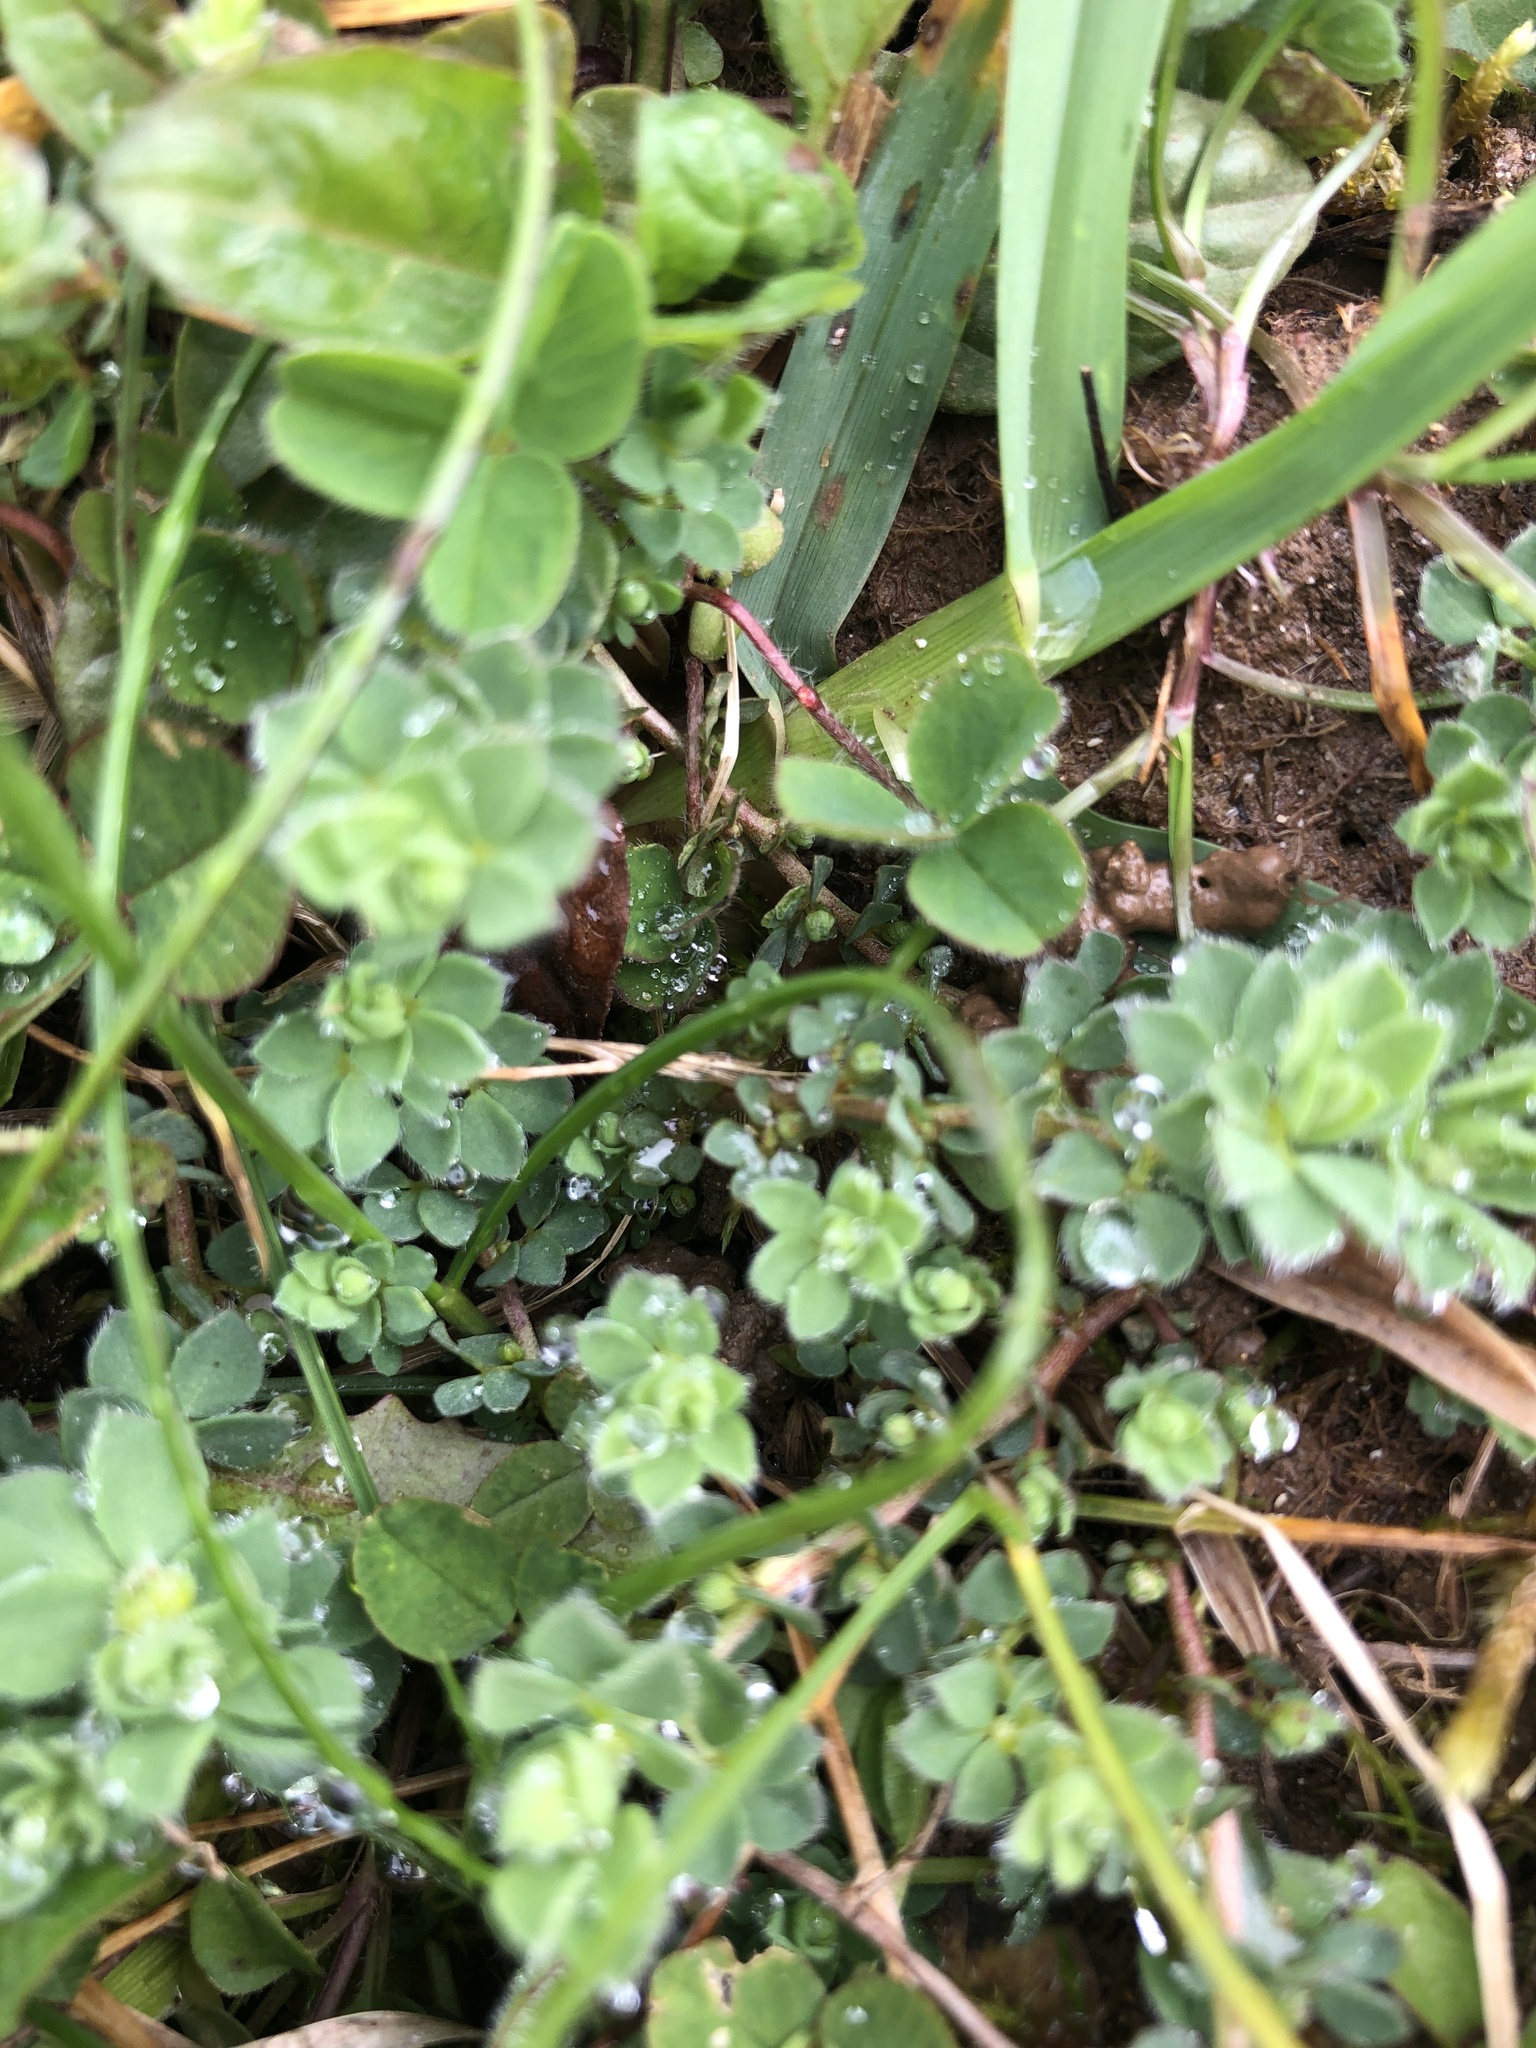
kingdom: Plantae
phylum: Tracheophyta
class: Magnoliopsida
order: Fabales
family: Fabaceae
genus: Lotus
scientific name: Lotus corniculatus
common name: Common bird's-foot-trefoil
